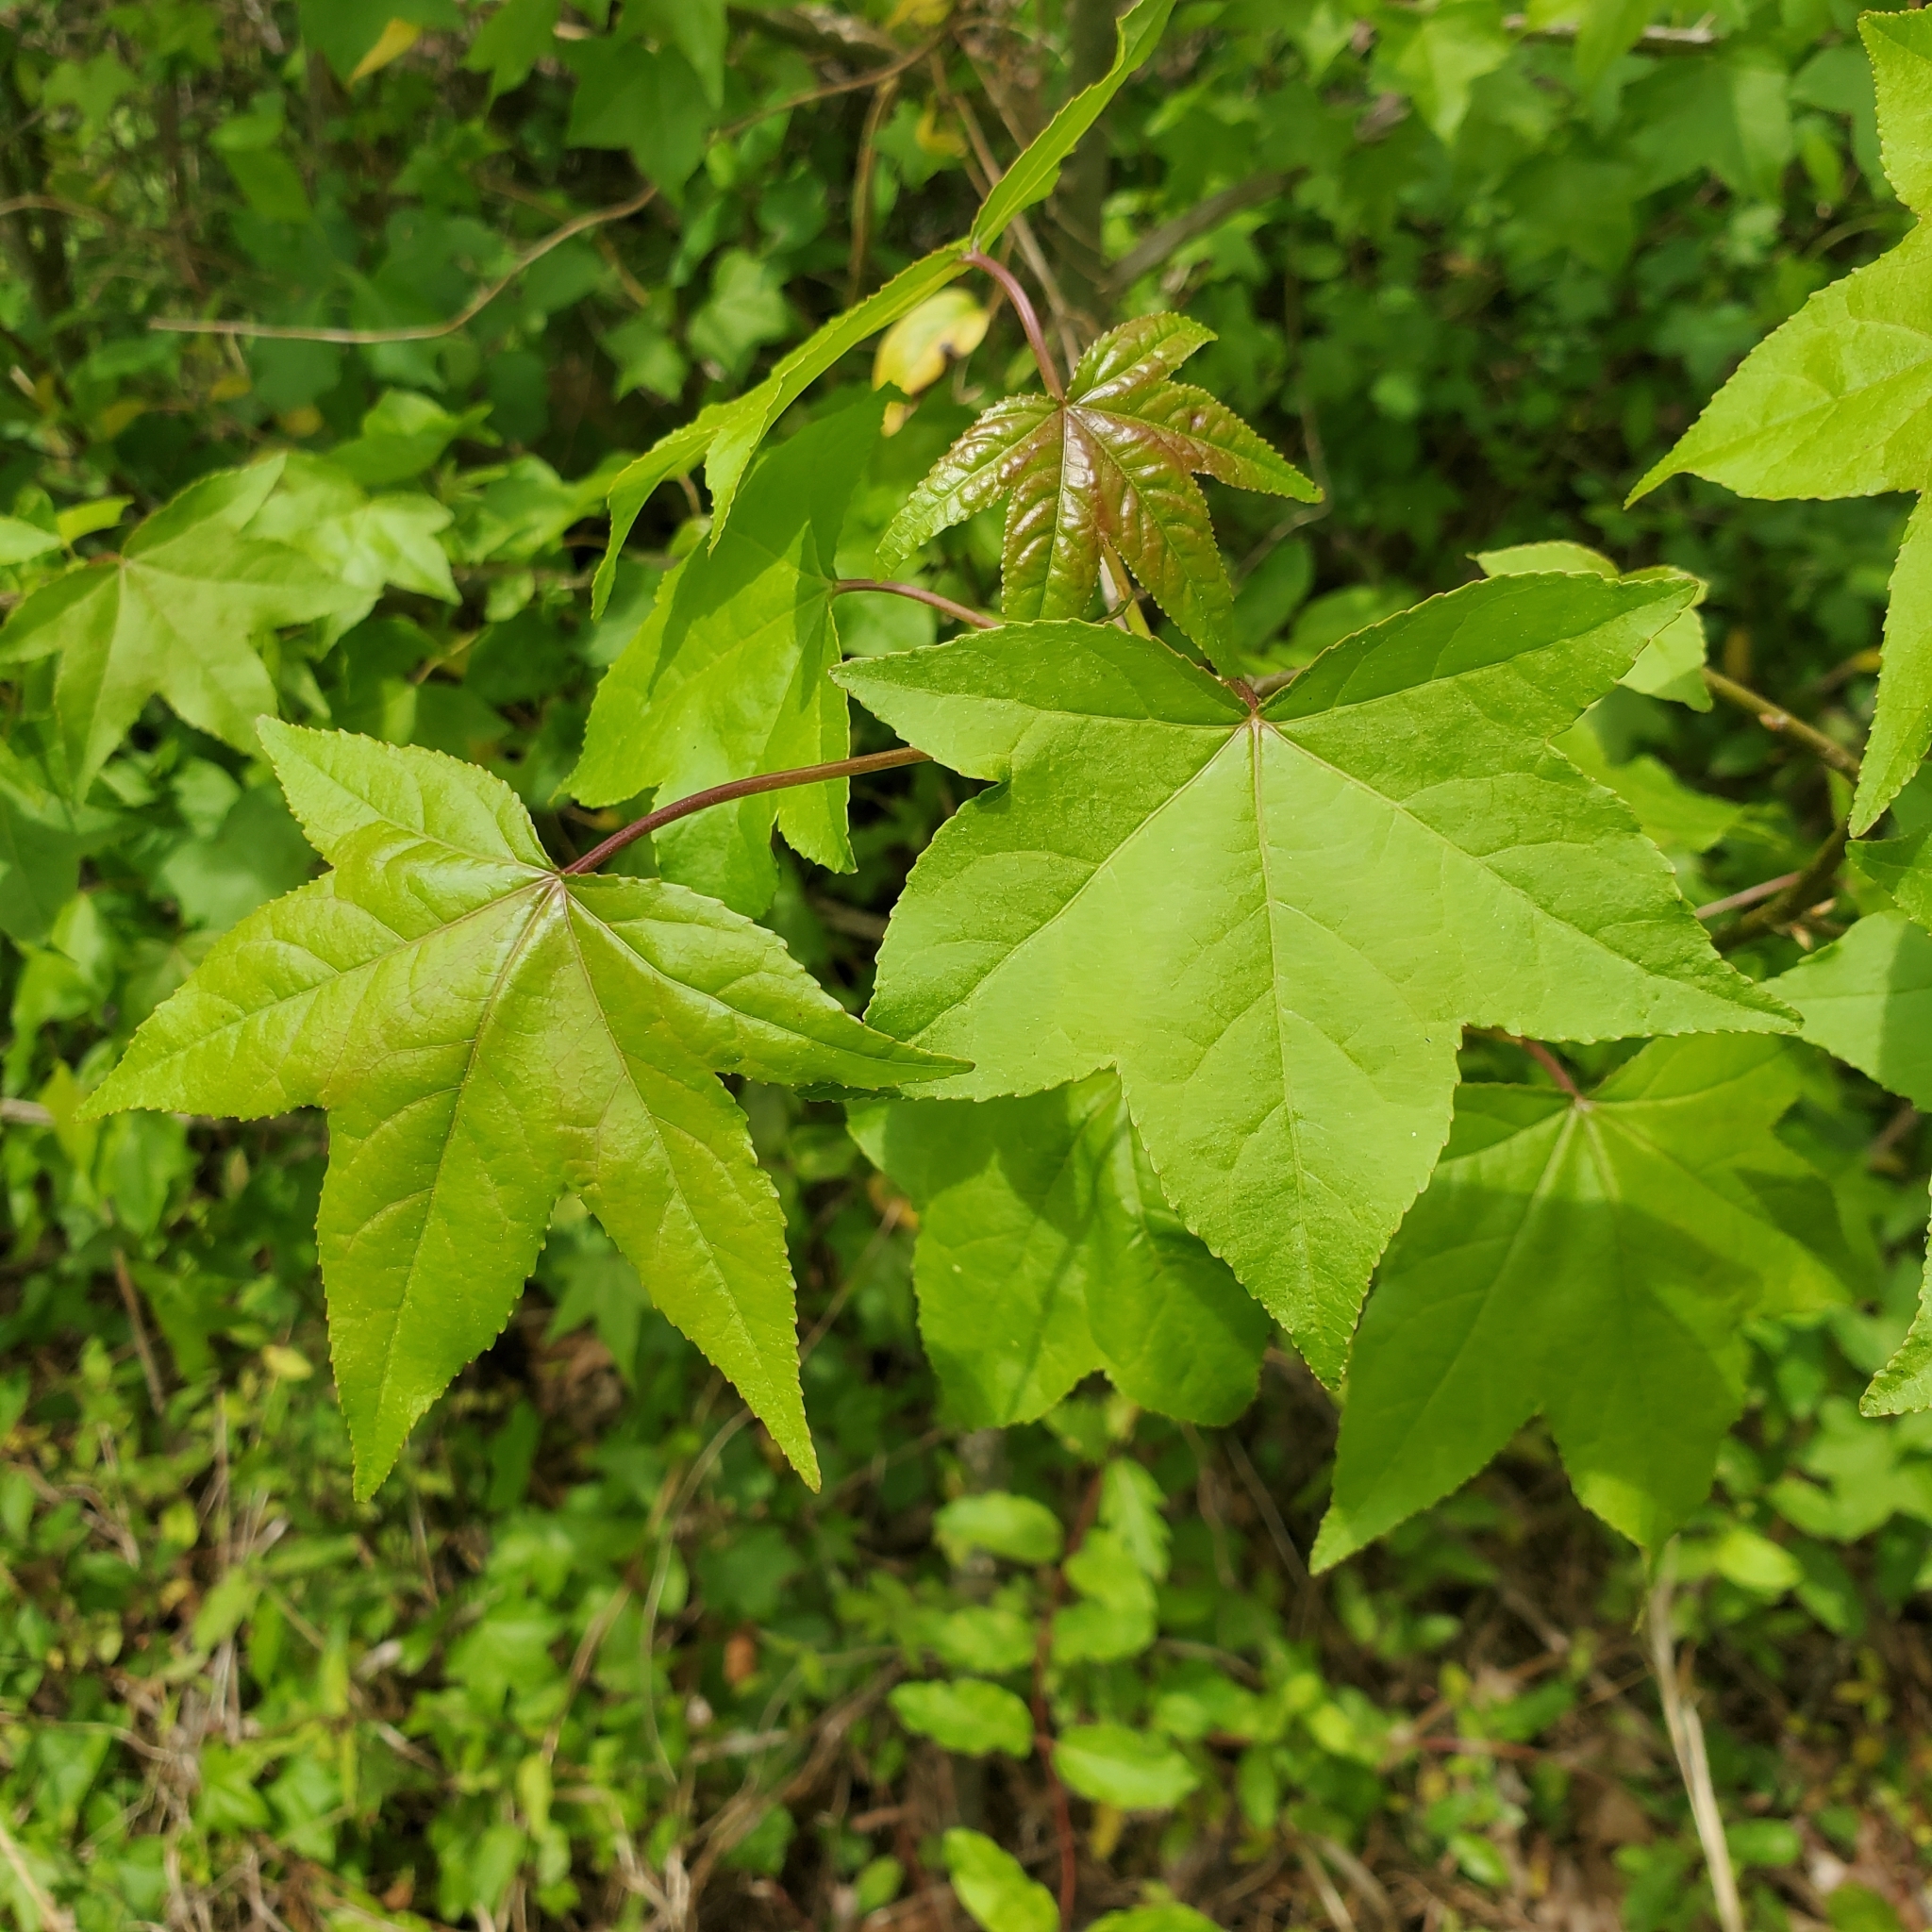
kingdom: Plantae
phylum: Tracheophyta
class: Magnoliopsida
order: Saxifragales
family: Altingiaceae
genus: Liquidambar
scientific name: Liquidambar styraciflua
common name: Sweet gum
